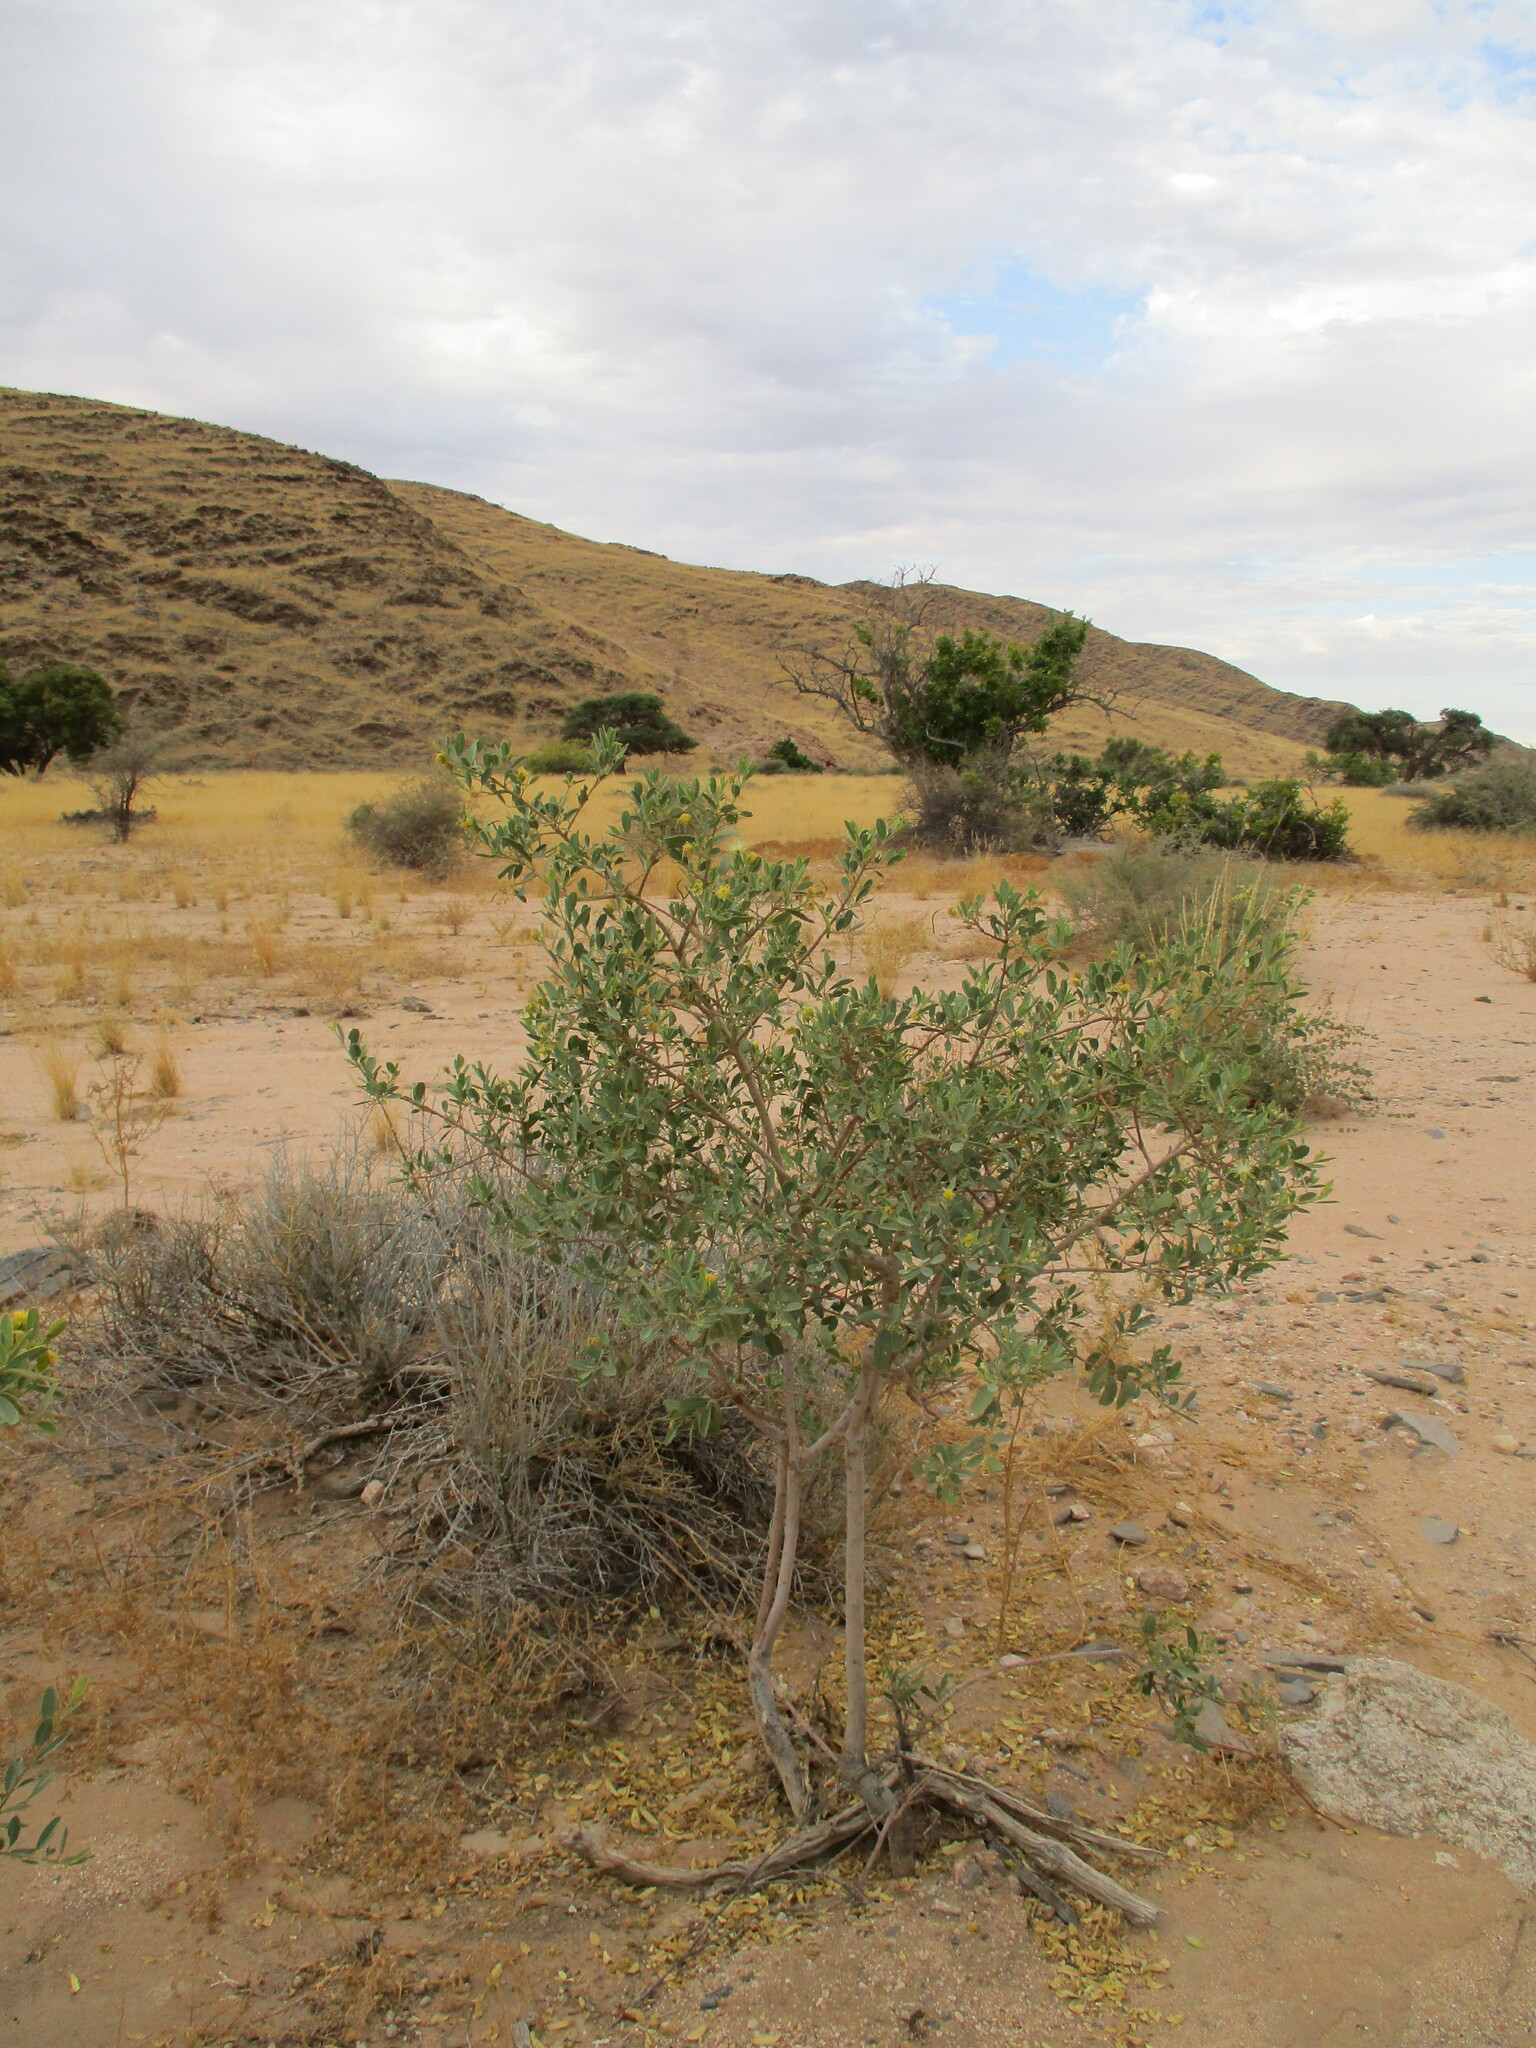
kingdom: Plantae
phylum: Tracheophyta
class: Magnoliopsida
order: Brassicales
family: Capparaceae
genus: Maerua
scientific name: Maerua schinzii
